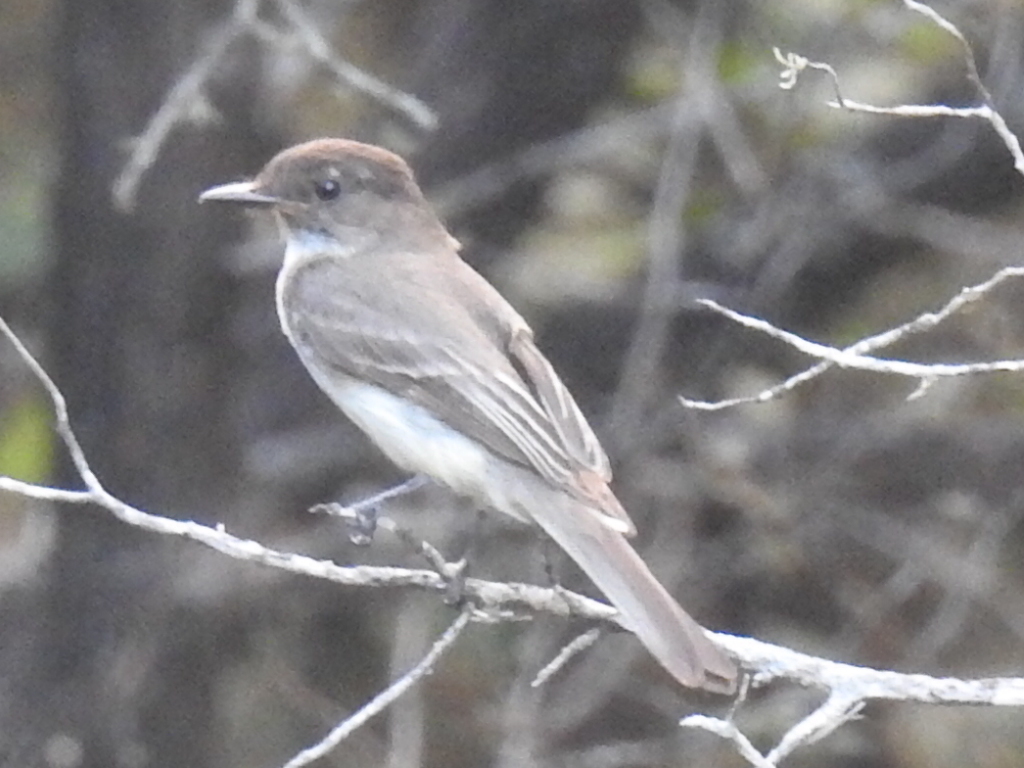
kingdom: Animalia
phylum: Chordata
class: Aves
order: Passeriformes
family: Tyrannidae
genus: Sayornis
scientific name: Sayornis phoebe
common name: Eastern phoebe
